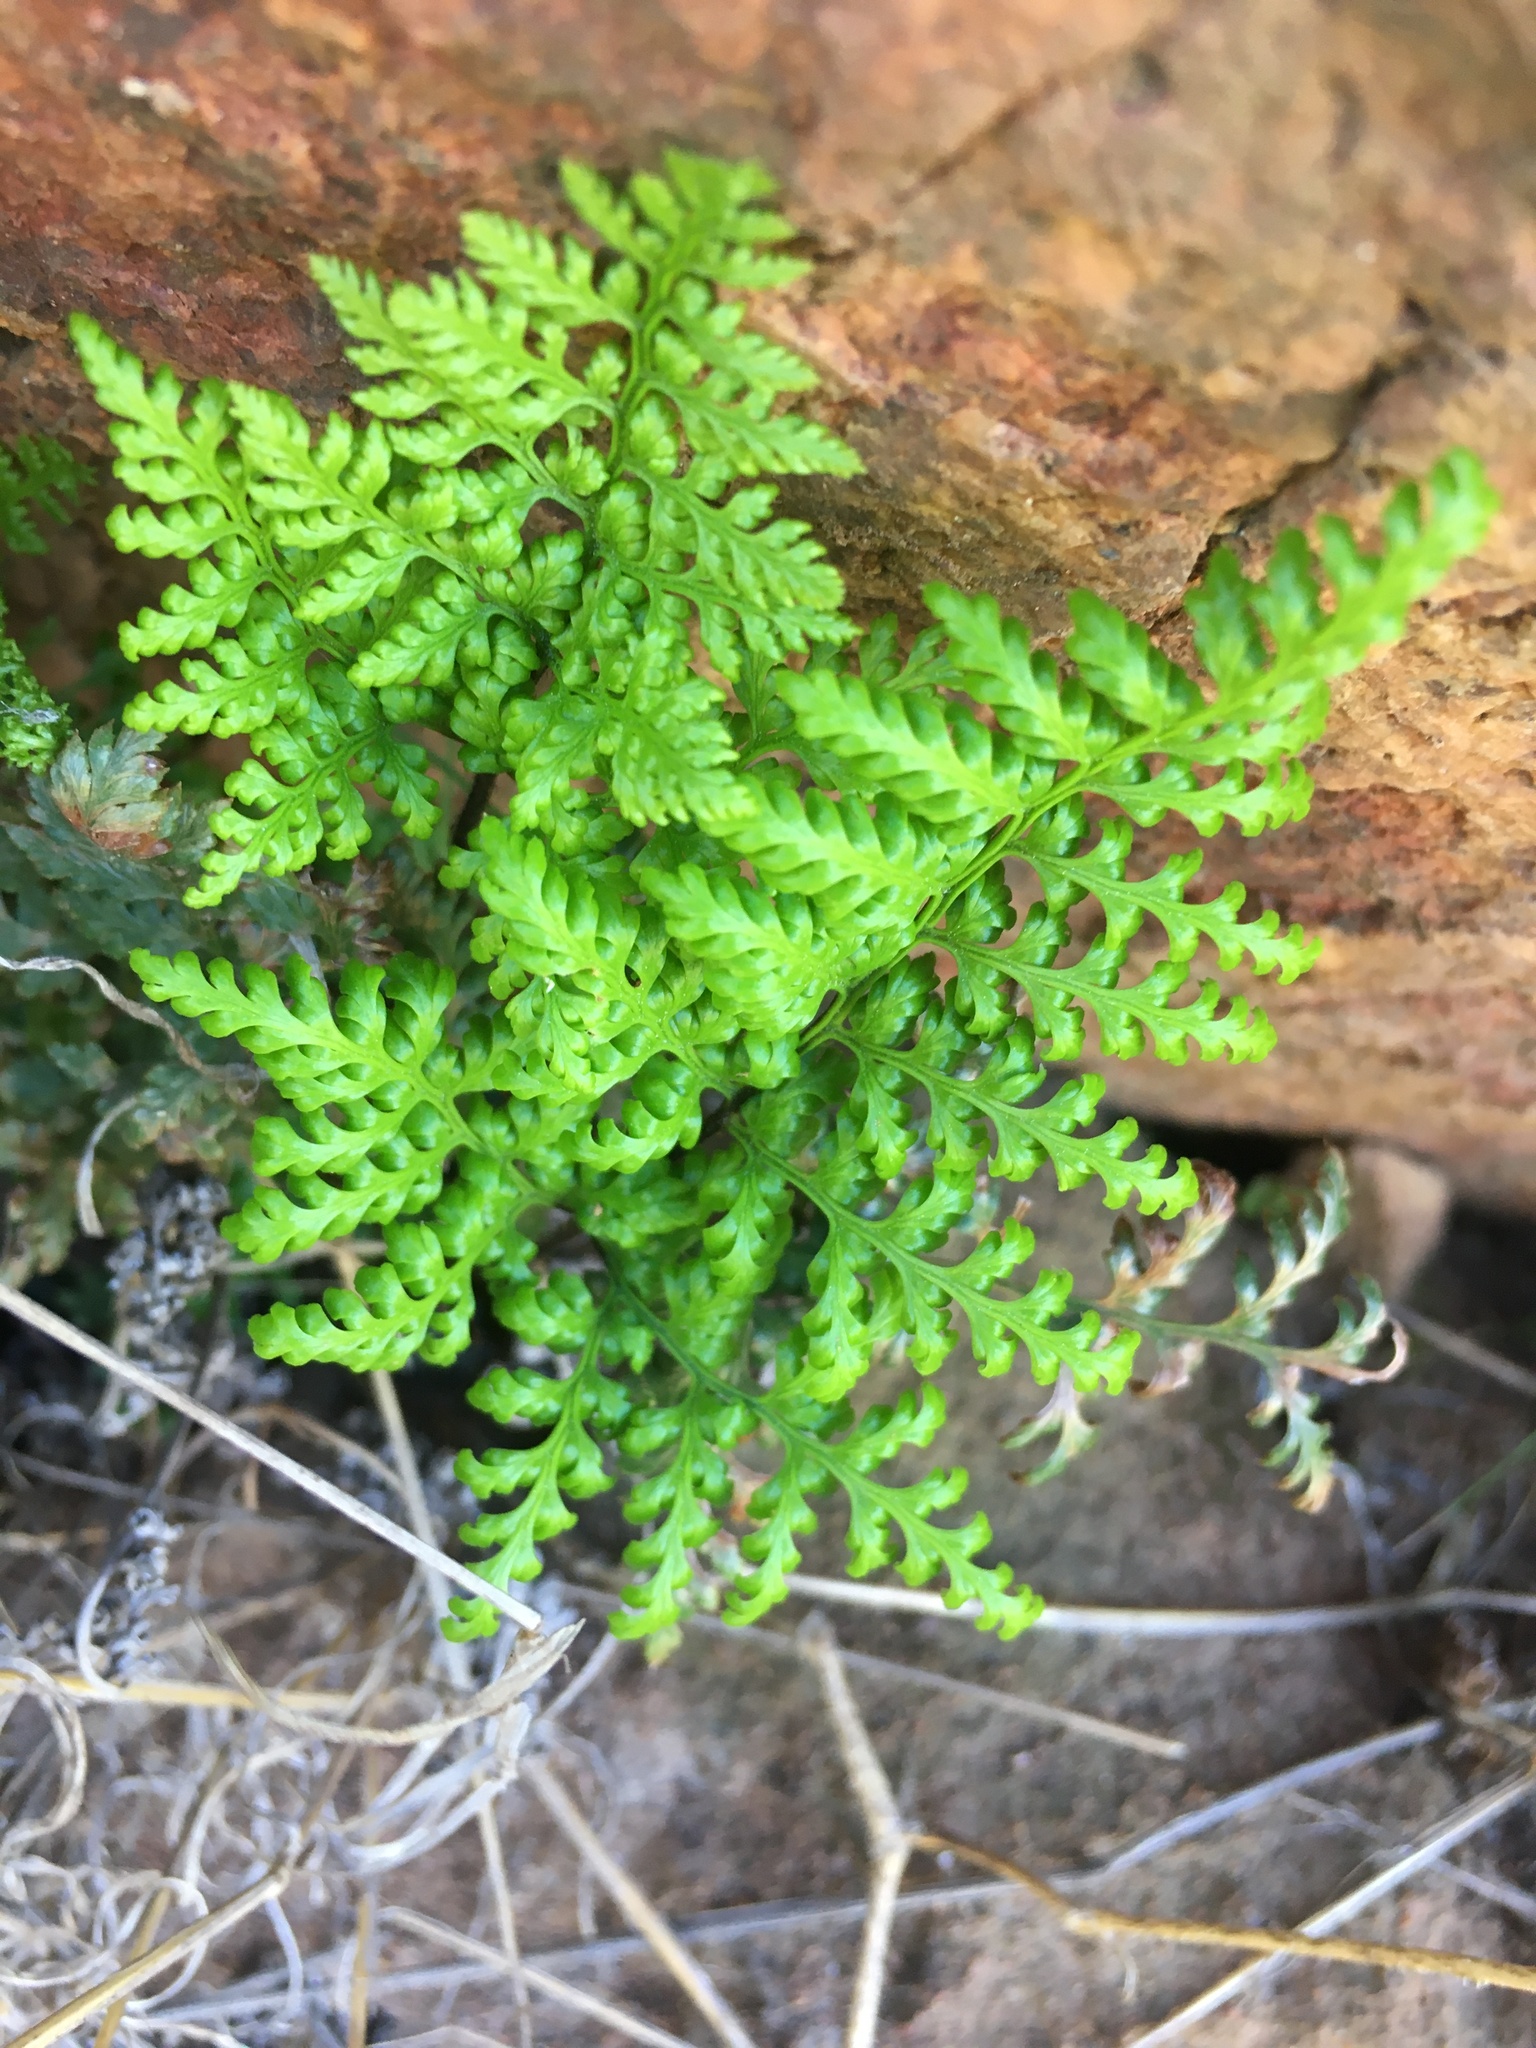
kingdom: Plantae
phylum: Tracheophyta
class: Polypodiopsida
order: Polypodiales
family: Pteridaceae
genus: Aspidotis
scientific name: Aspidotis californica
